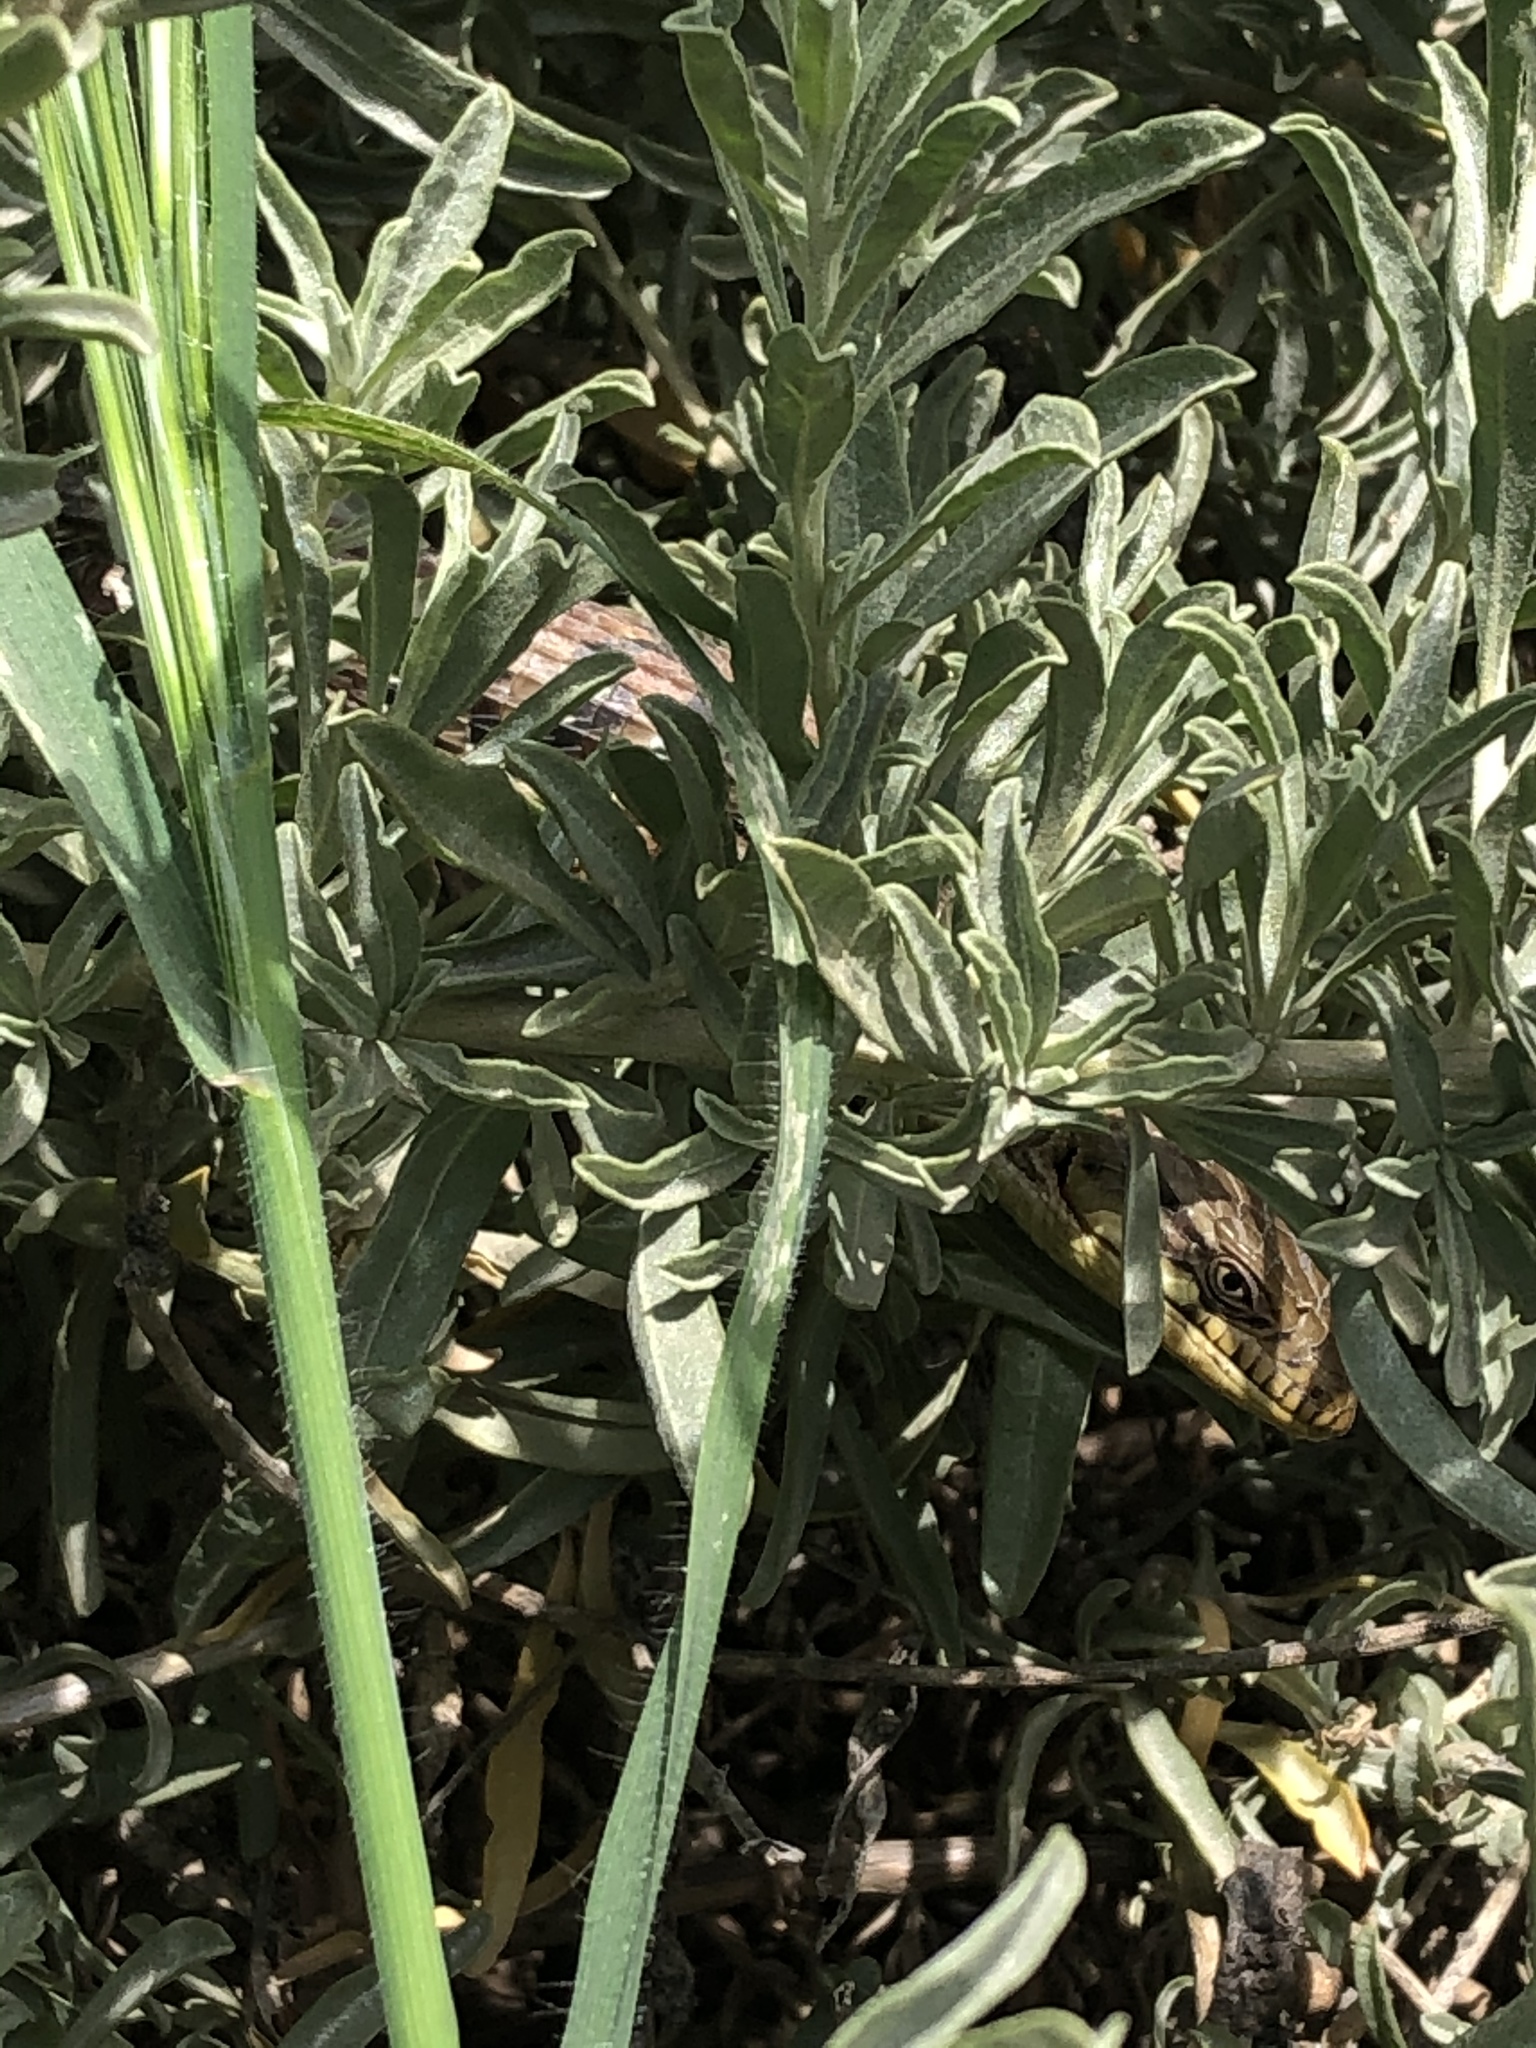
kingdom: Animalia
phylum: Chordata
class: Squamata
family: Anguidae
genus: Elgaria
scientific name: Elgaria multicarinata
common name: Southern alligator lizard
